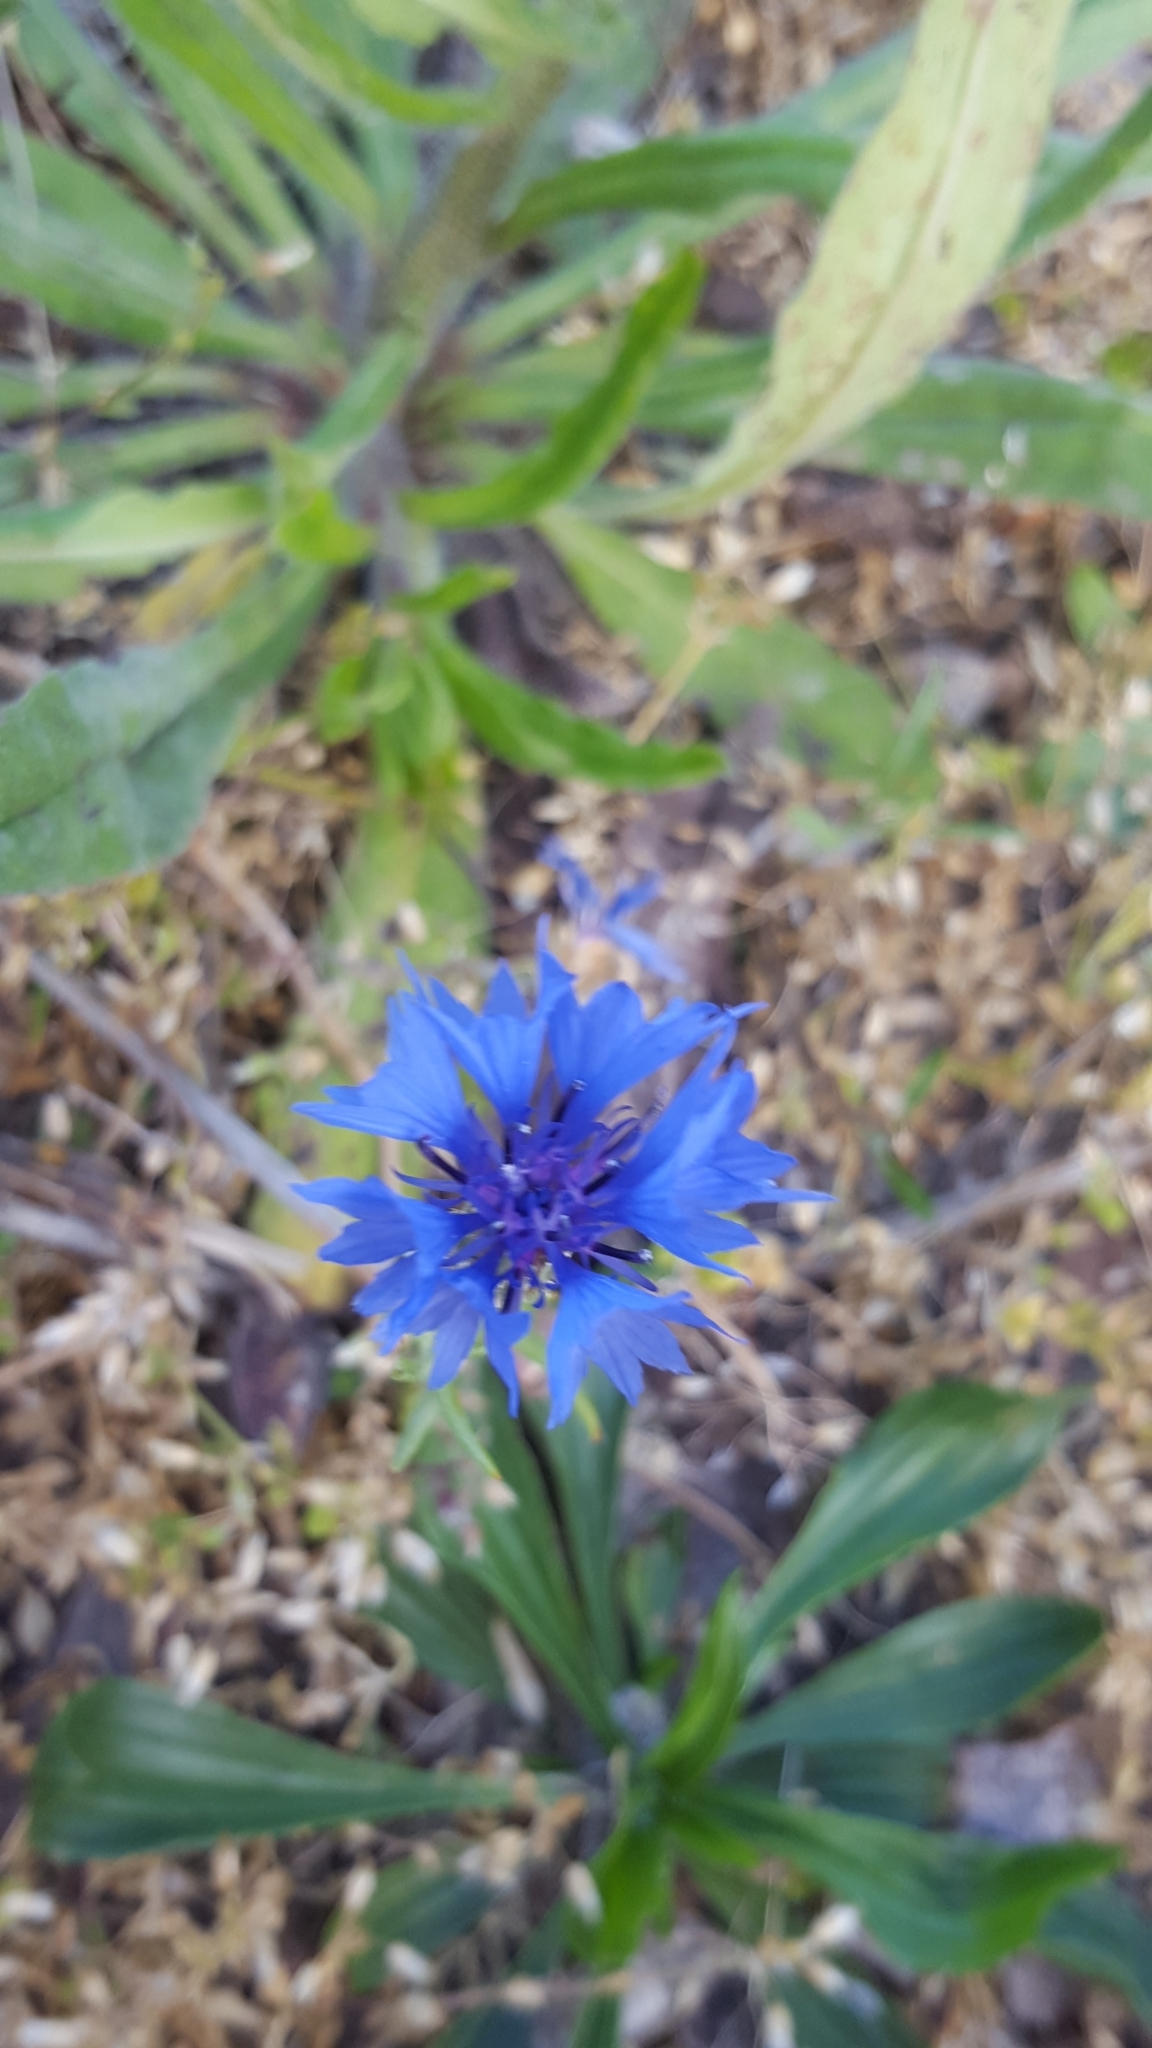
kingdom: Plantae
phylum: Tracheophyta
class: Magnoliopsida
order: Asterales
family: Asteraceae
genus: Centaurea
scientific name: Centaurea cyanus
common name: Cornflower
